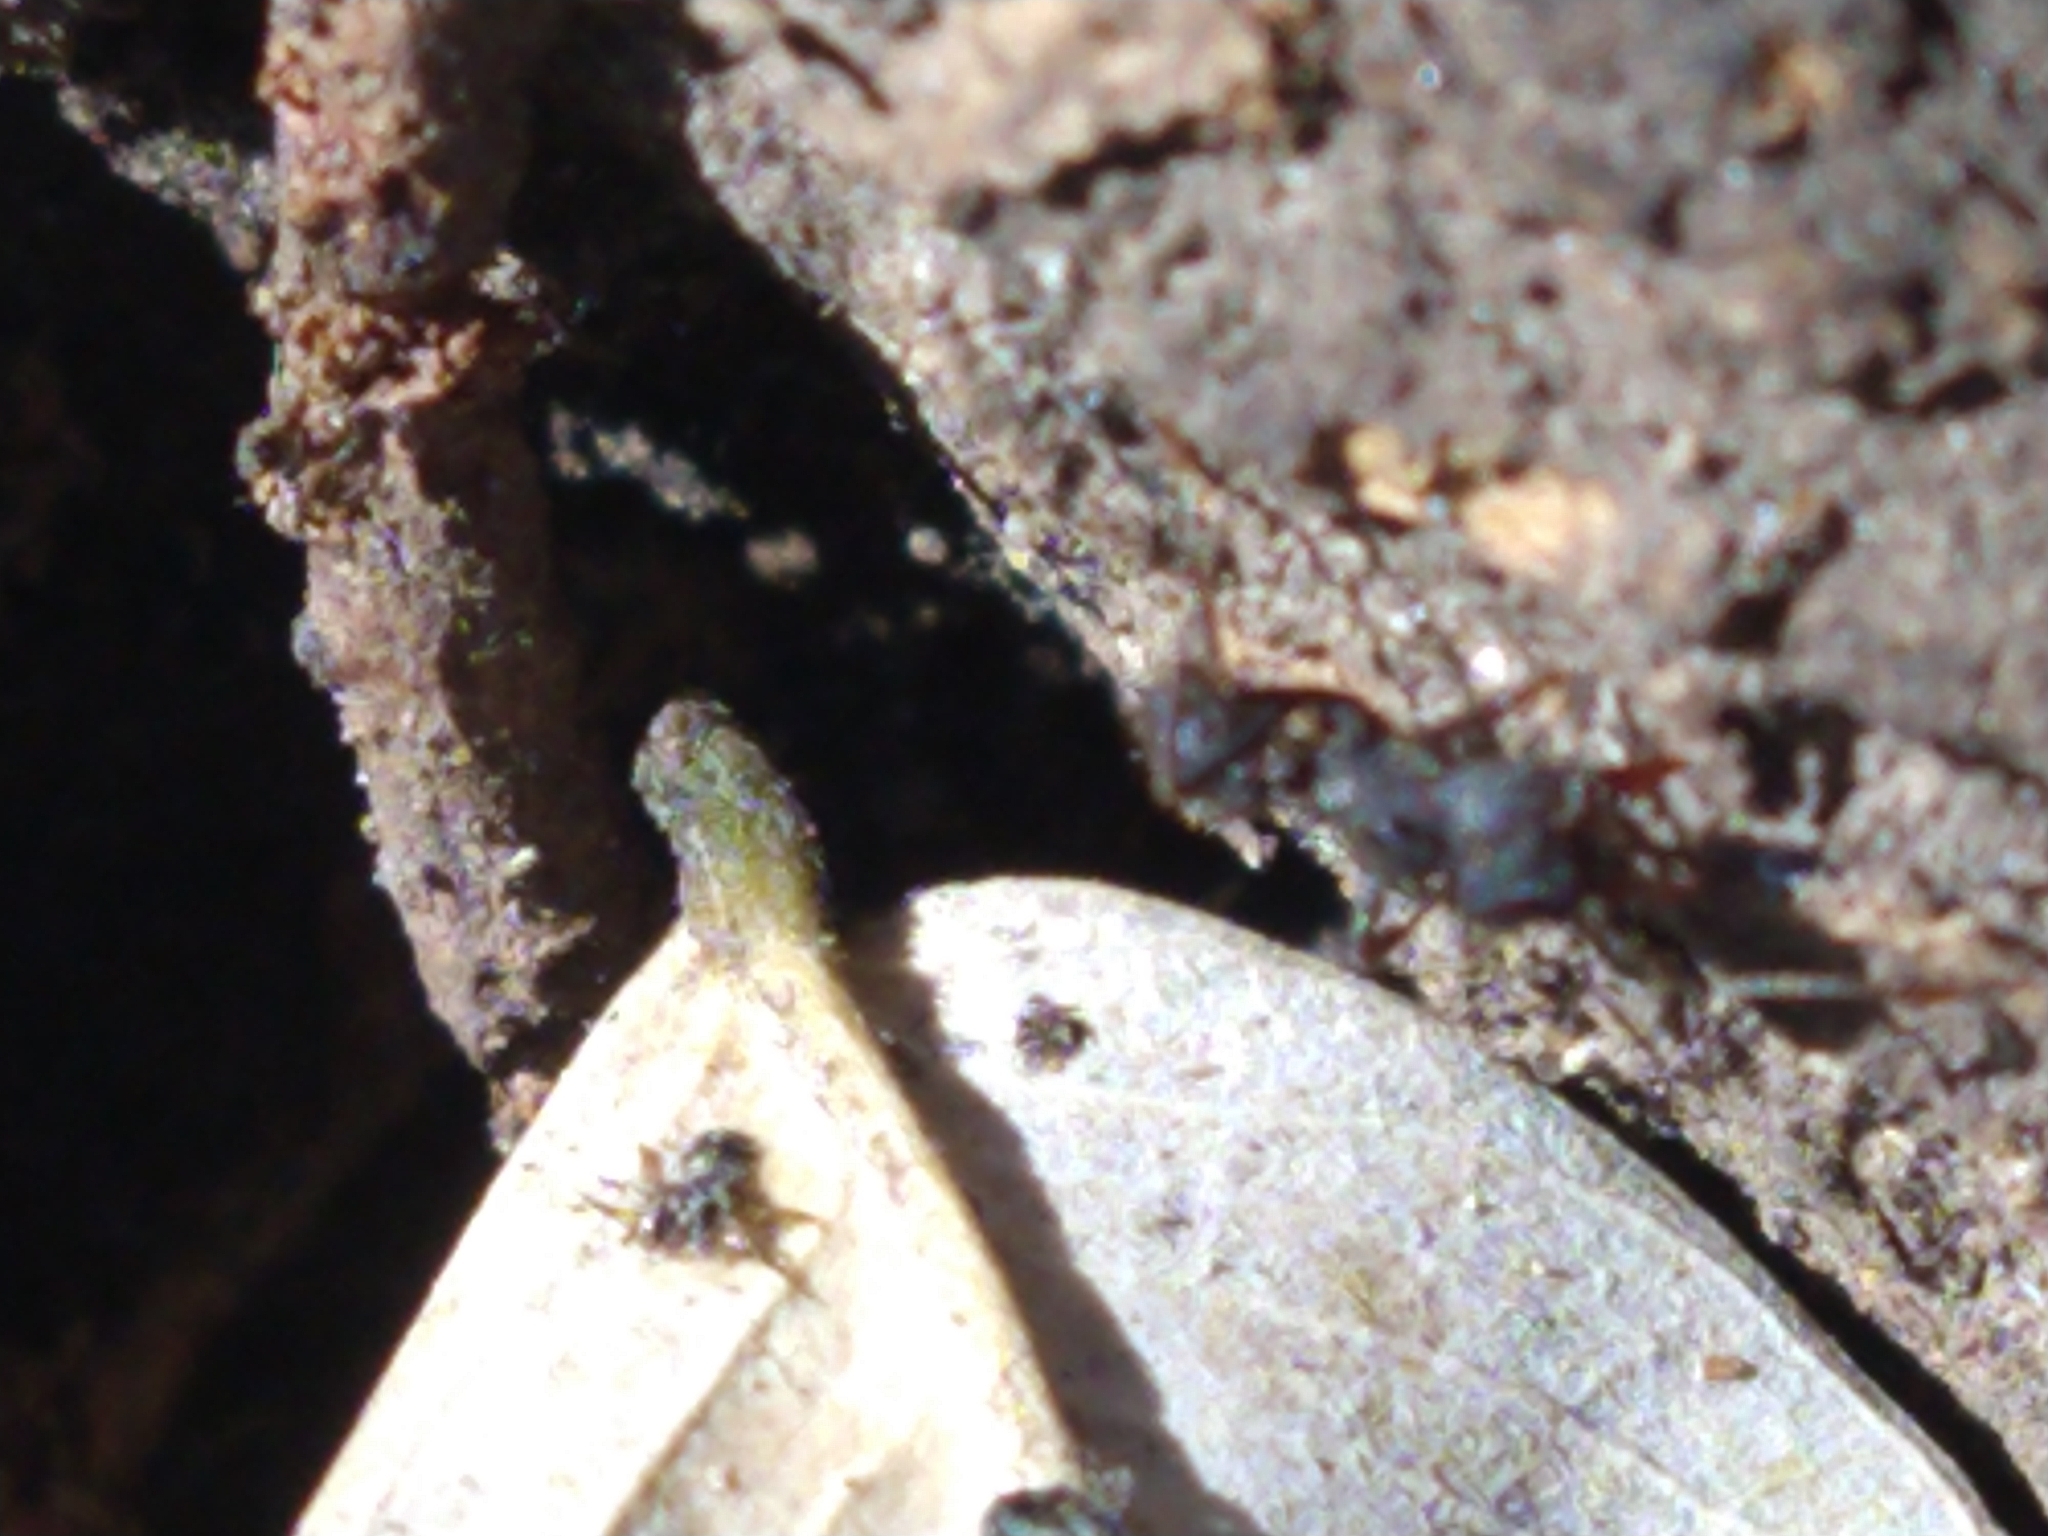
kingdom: Animalia
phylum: Arthropoda
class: Insecta
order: Hymenoptera
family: Formicidae
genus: Acromyrmex
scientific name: Acromyrmex
